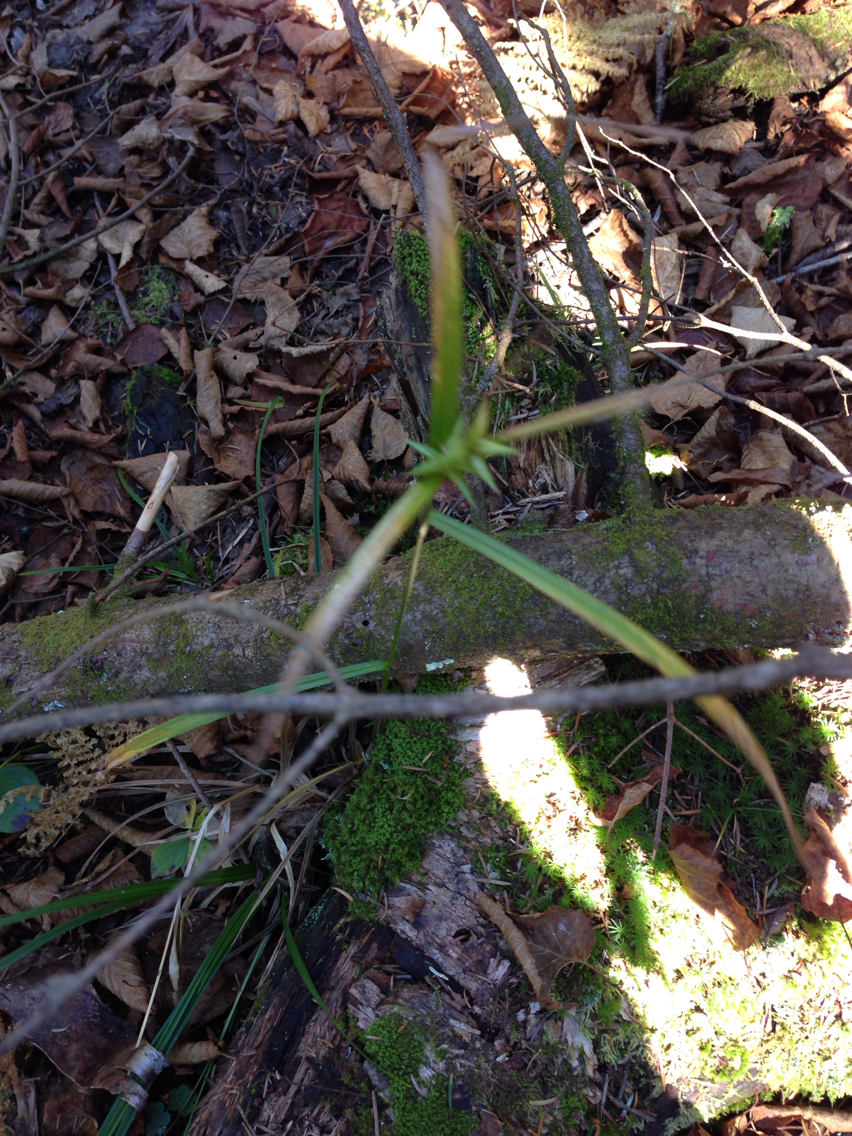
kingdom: Plantae
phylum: Tracheophyta
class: Liliopsida
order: Poales
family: Cyperaceae
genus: Carex
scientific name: Carex intumescens
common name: Greater bladder sedge
